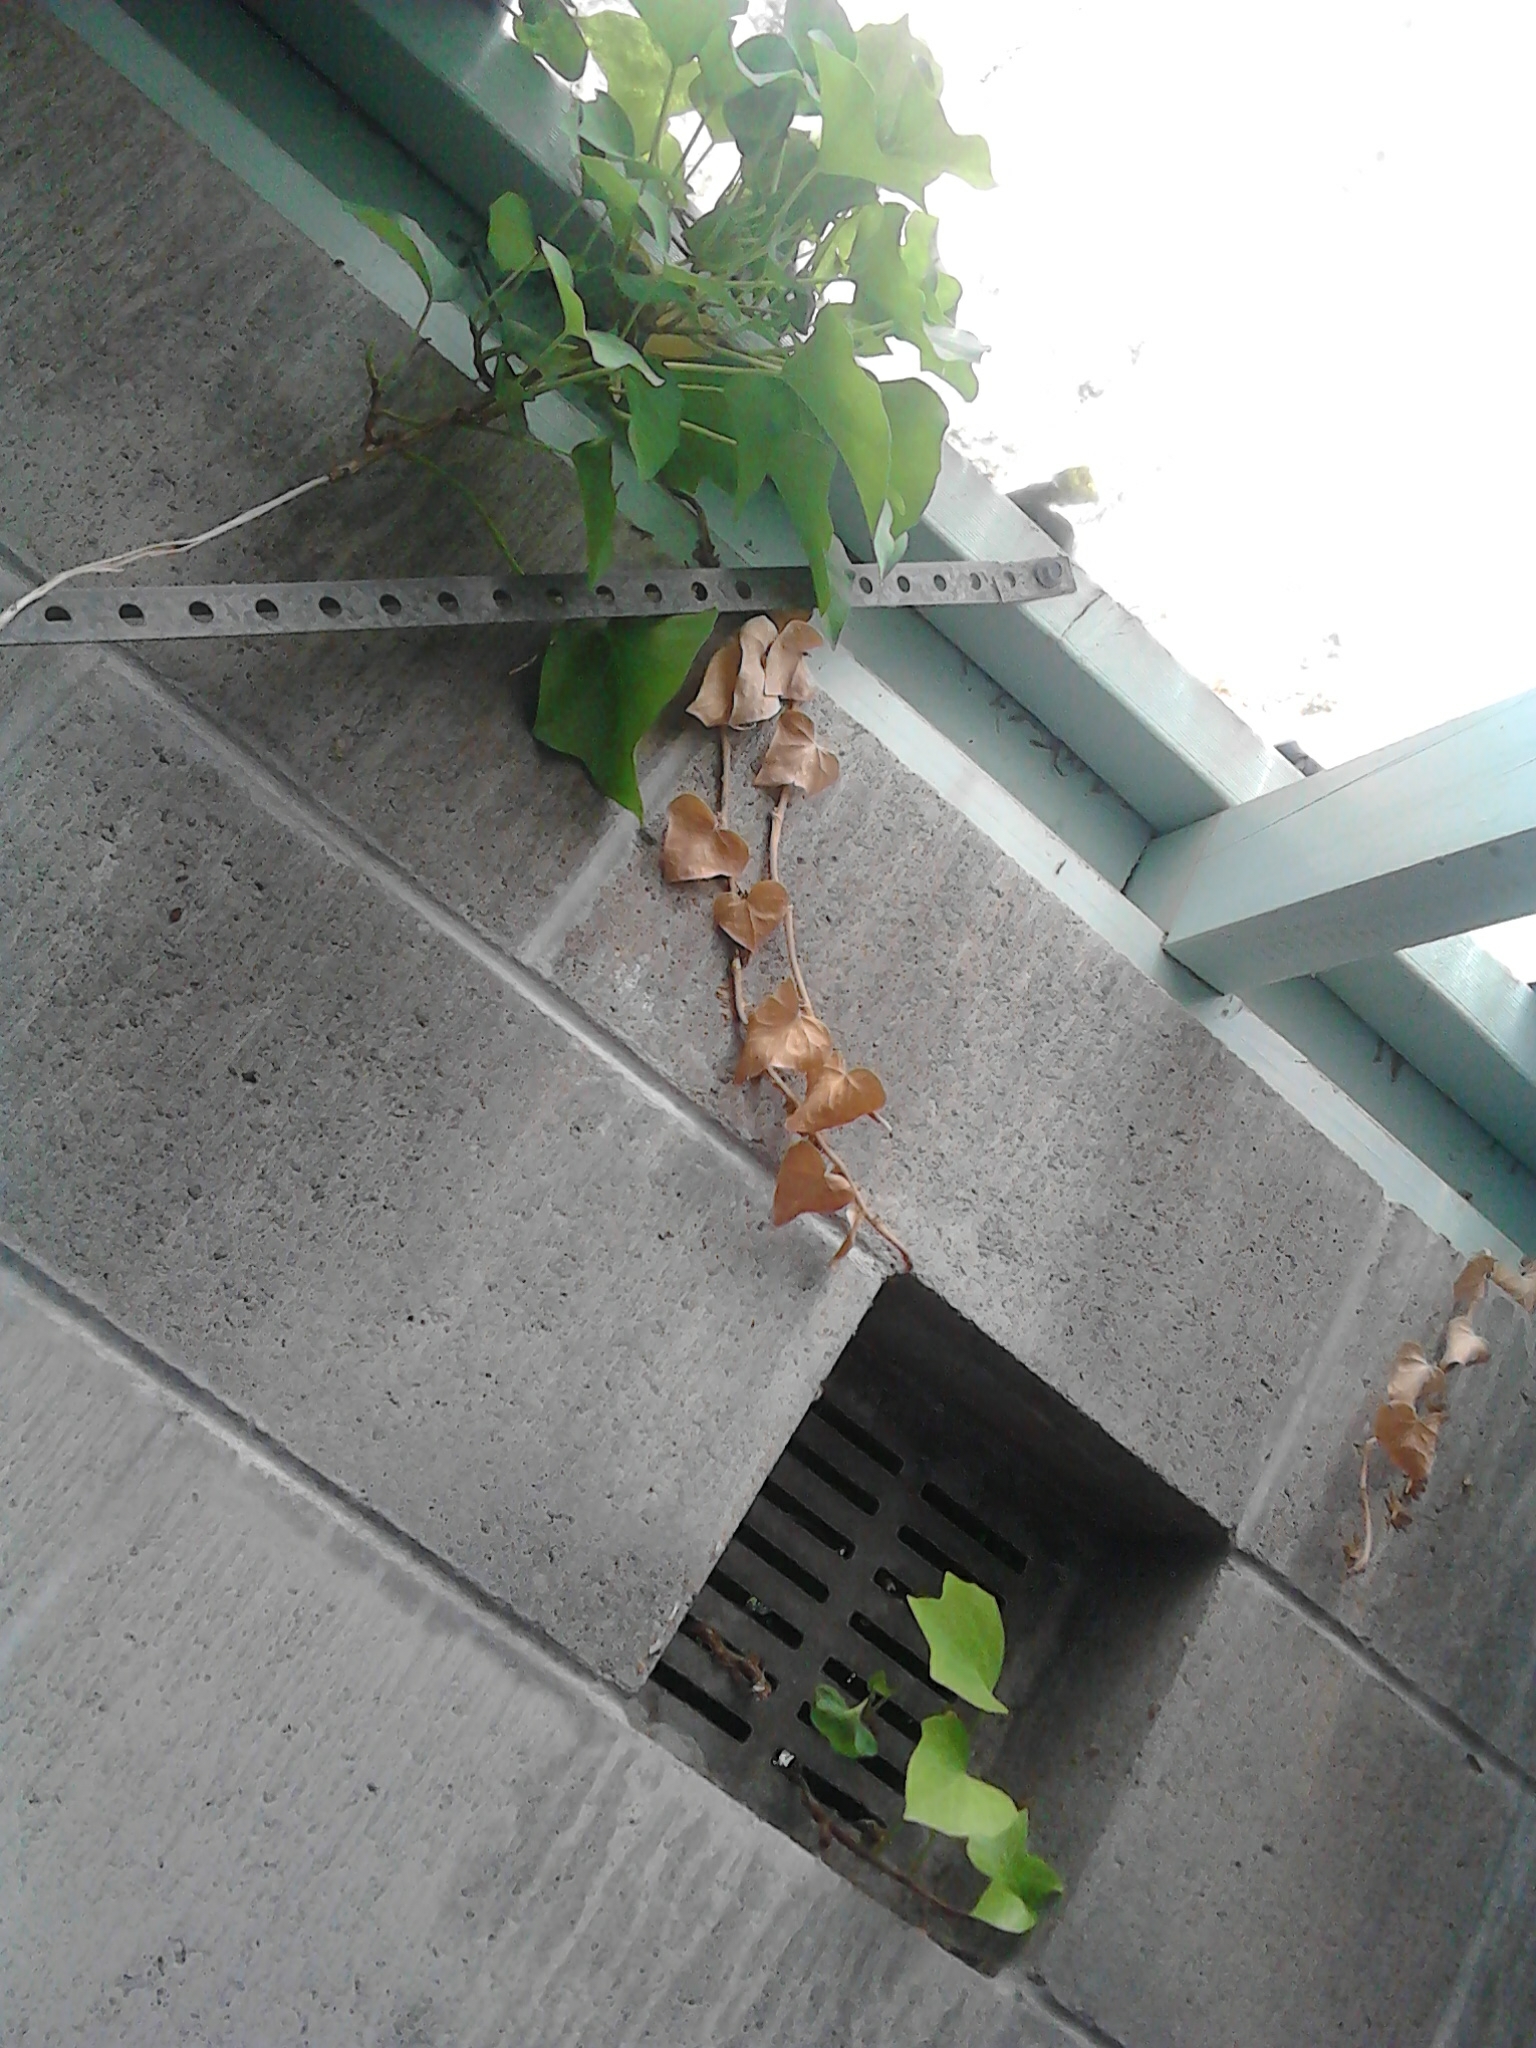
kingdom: Plantae
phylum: Tracheophyta
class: Magnoliopsida
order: Apiales
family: Araliaceae
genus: Hedera
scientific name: Hedera helix
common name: Ivy
